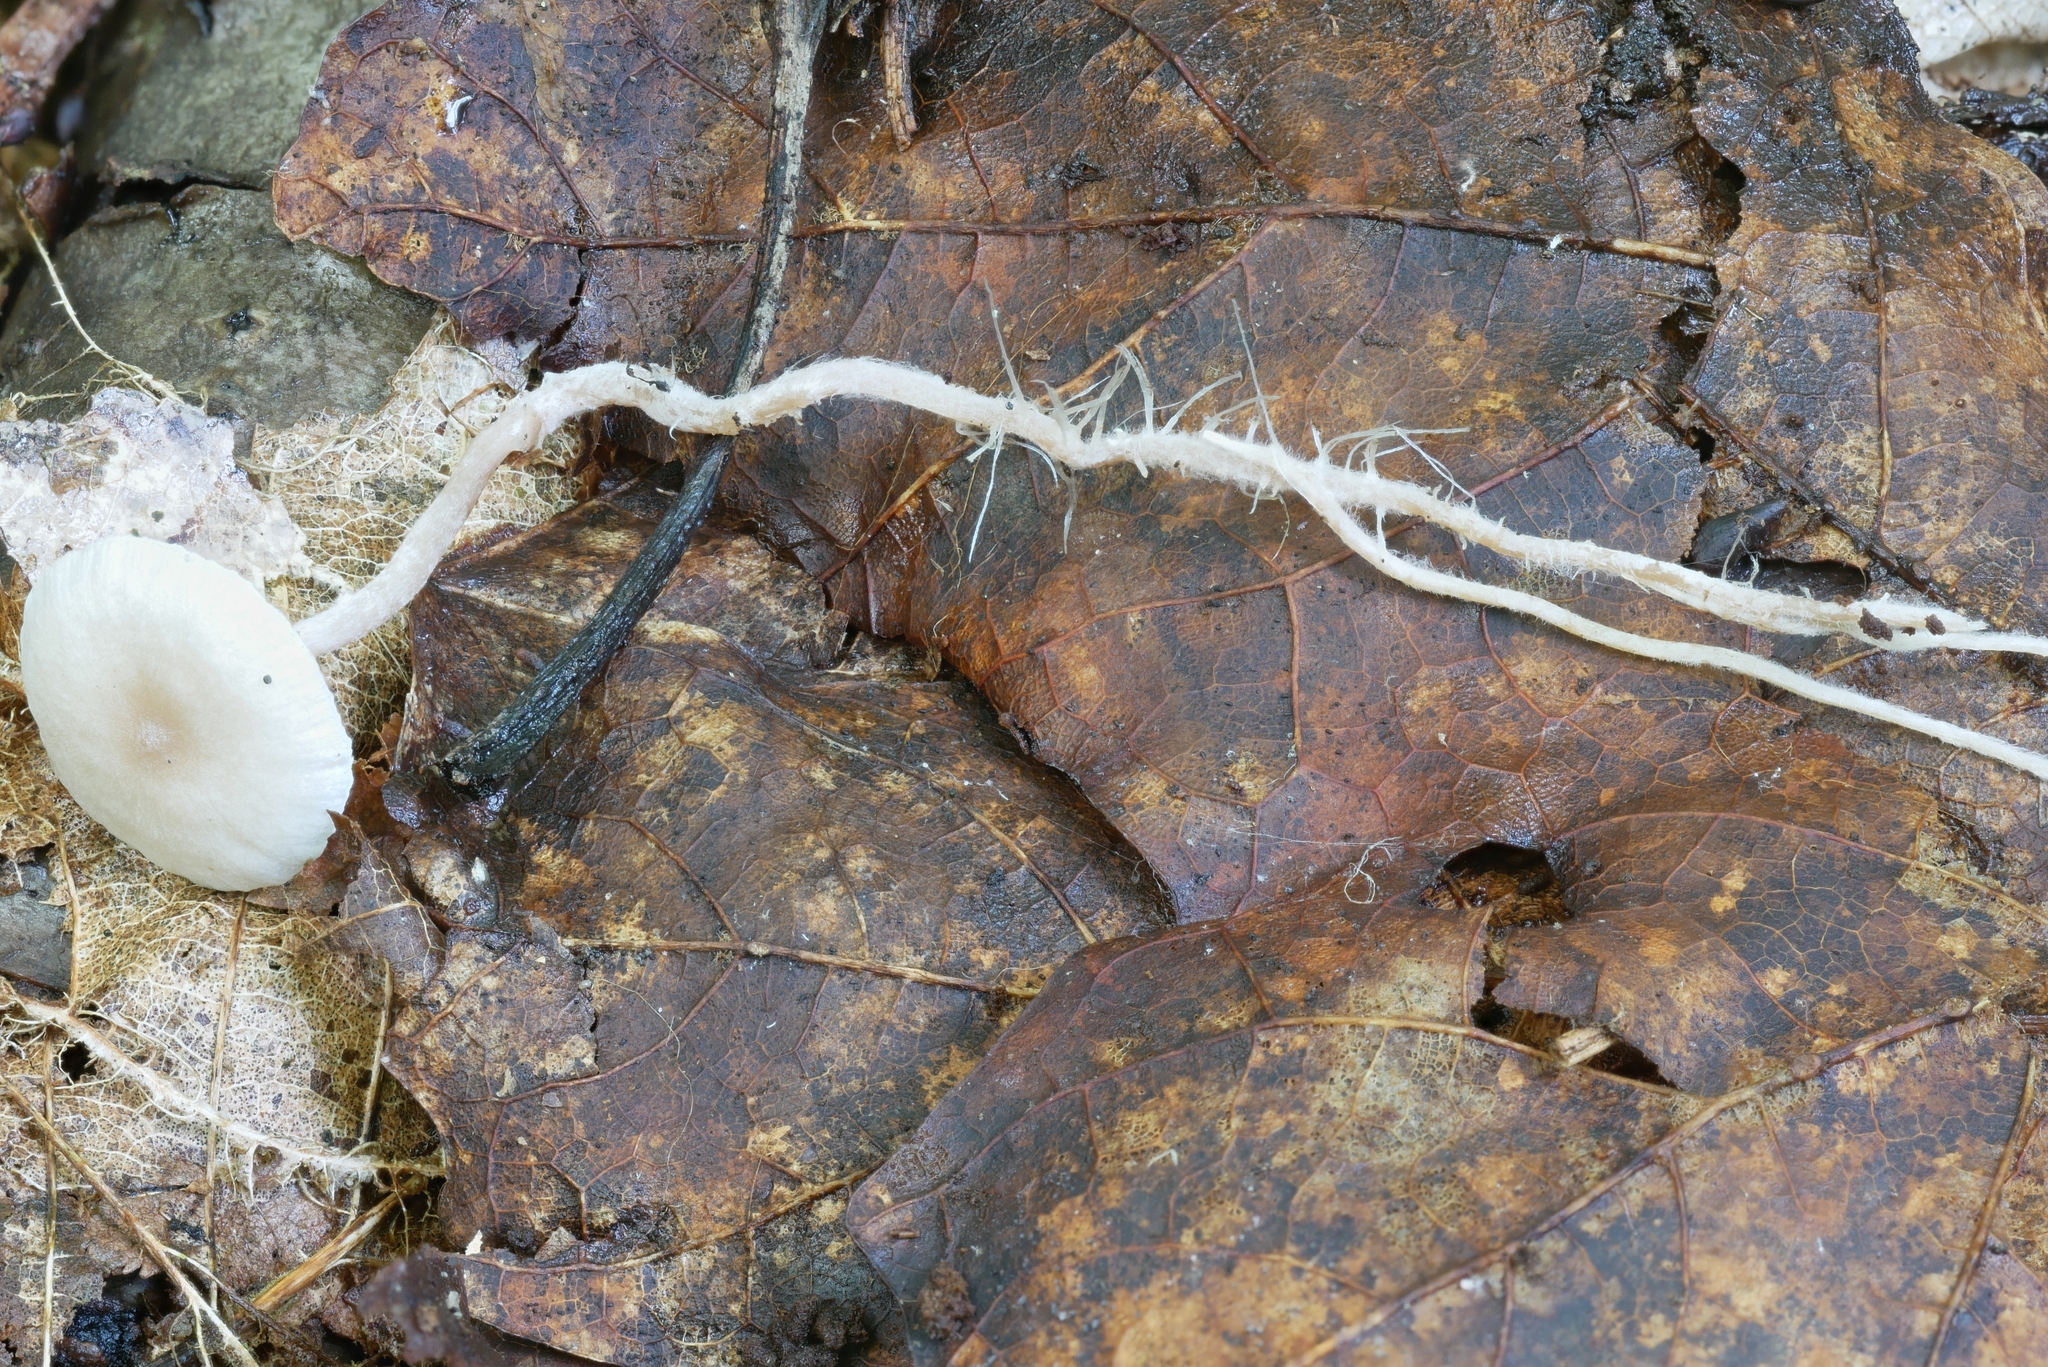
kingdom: Fungi
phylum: Basidiomycota
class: Agaricomycetes
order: Agaricales
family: Tricholomataceae
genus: Collybia
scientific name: Collybia cookei
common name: Splitpea shanklet
